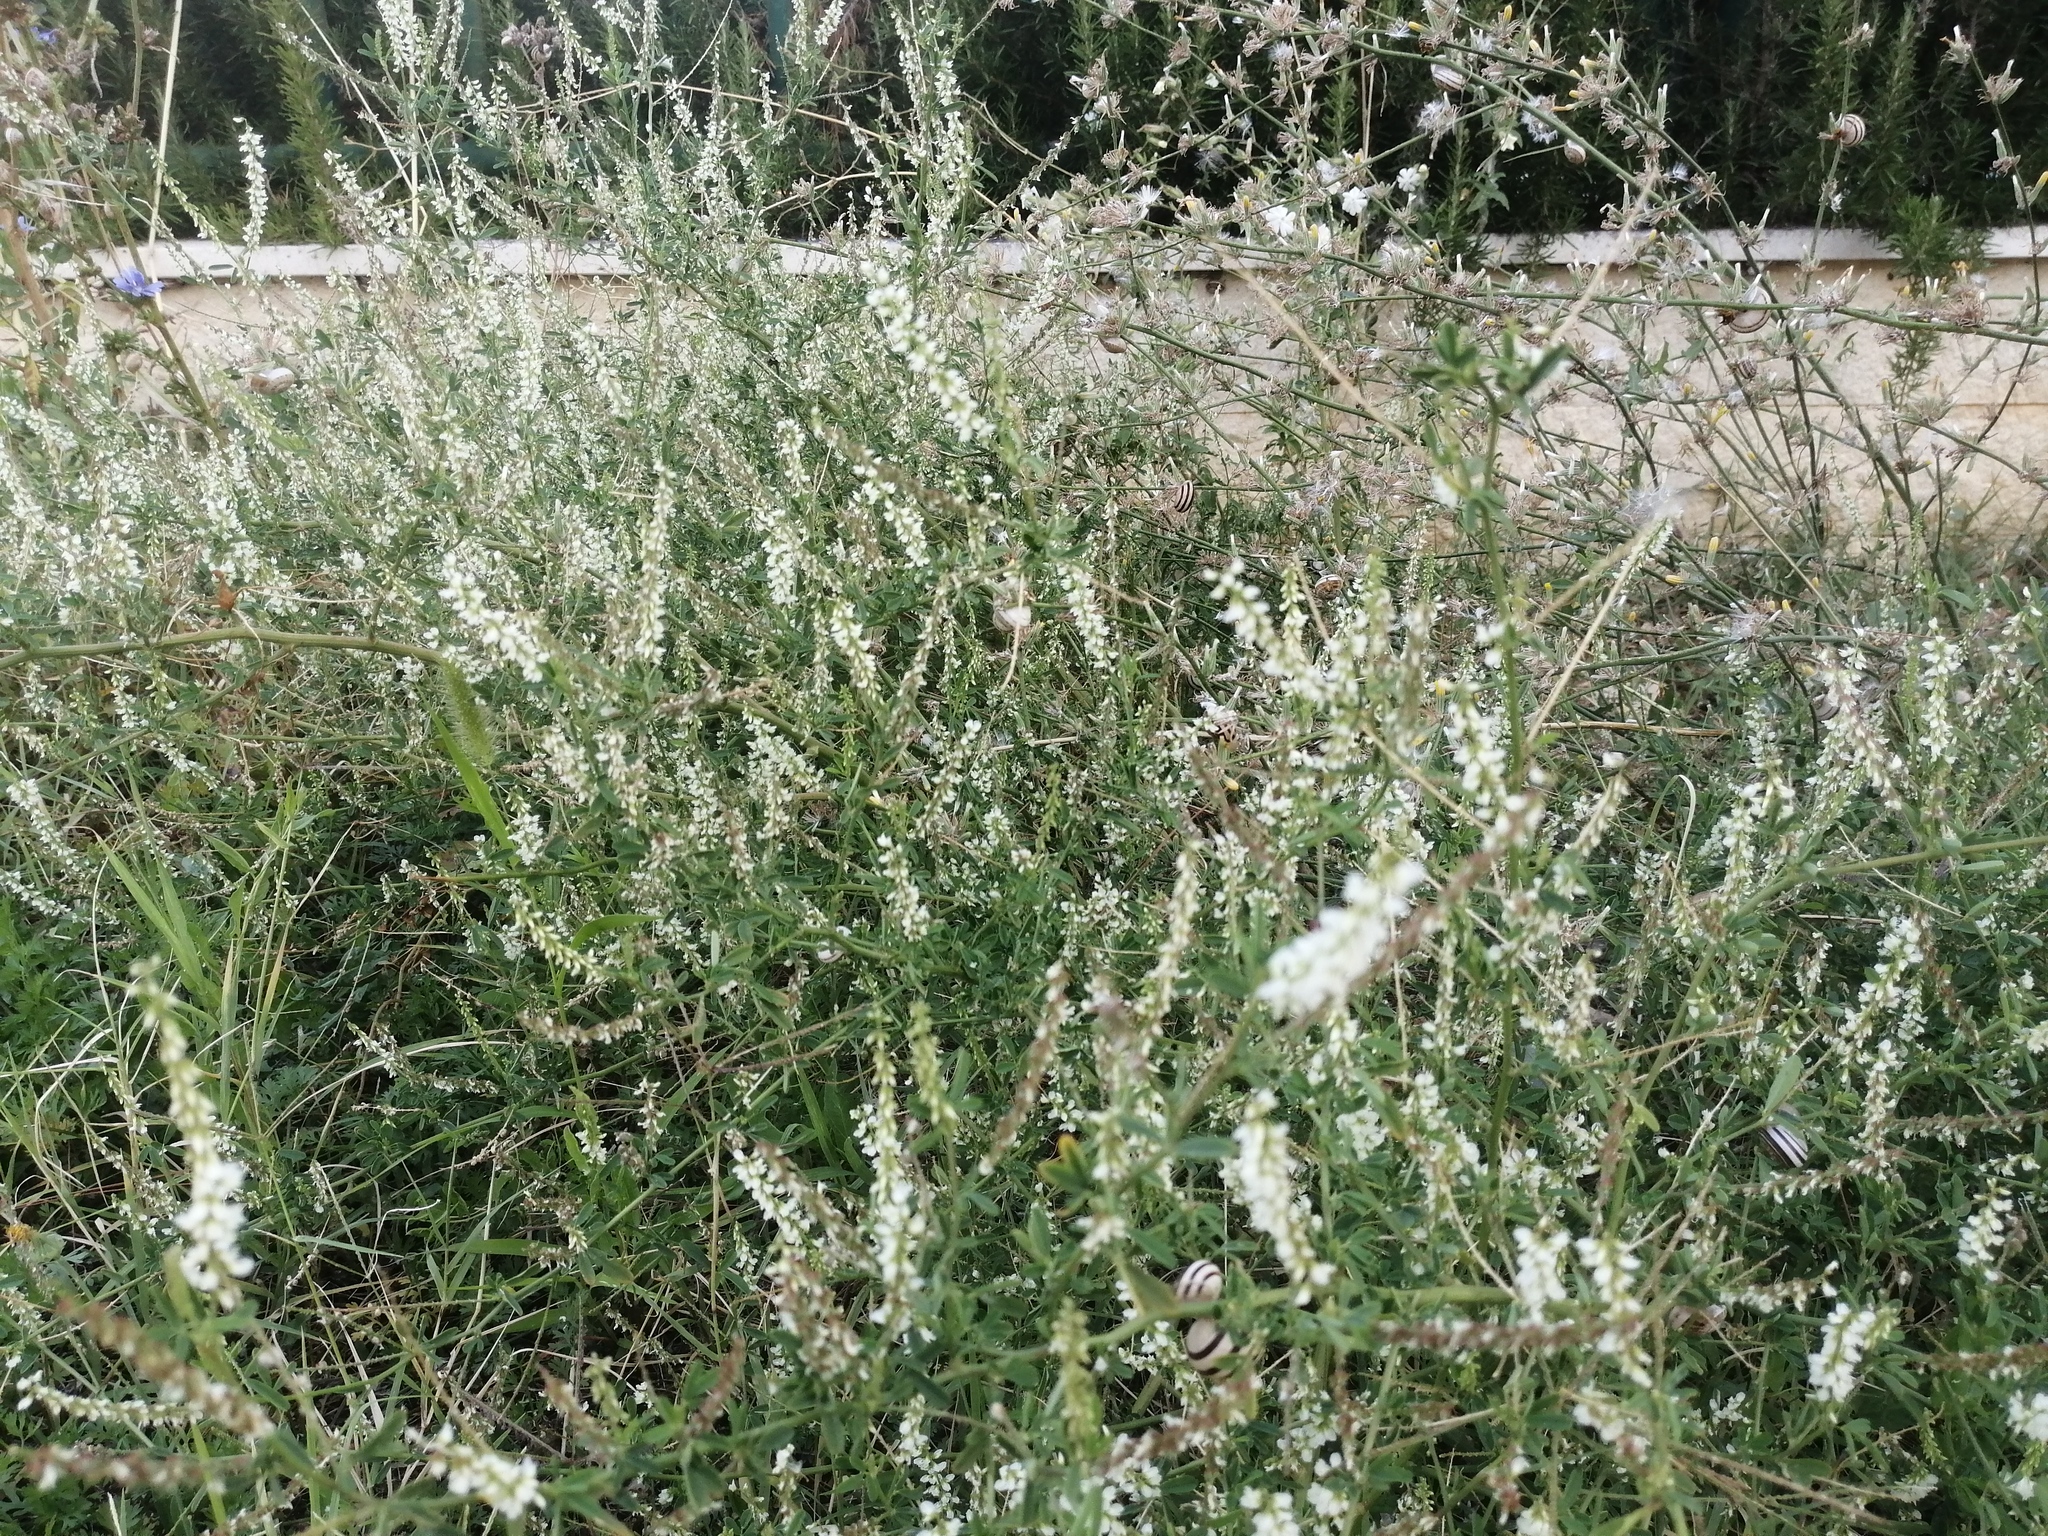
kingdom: Plantae
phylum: Tracheophyta
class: Magnoliopsida
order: Fabales
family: Fabaceae
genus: Melilotus
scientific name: Melilotus albus
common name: White melilot
